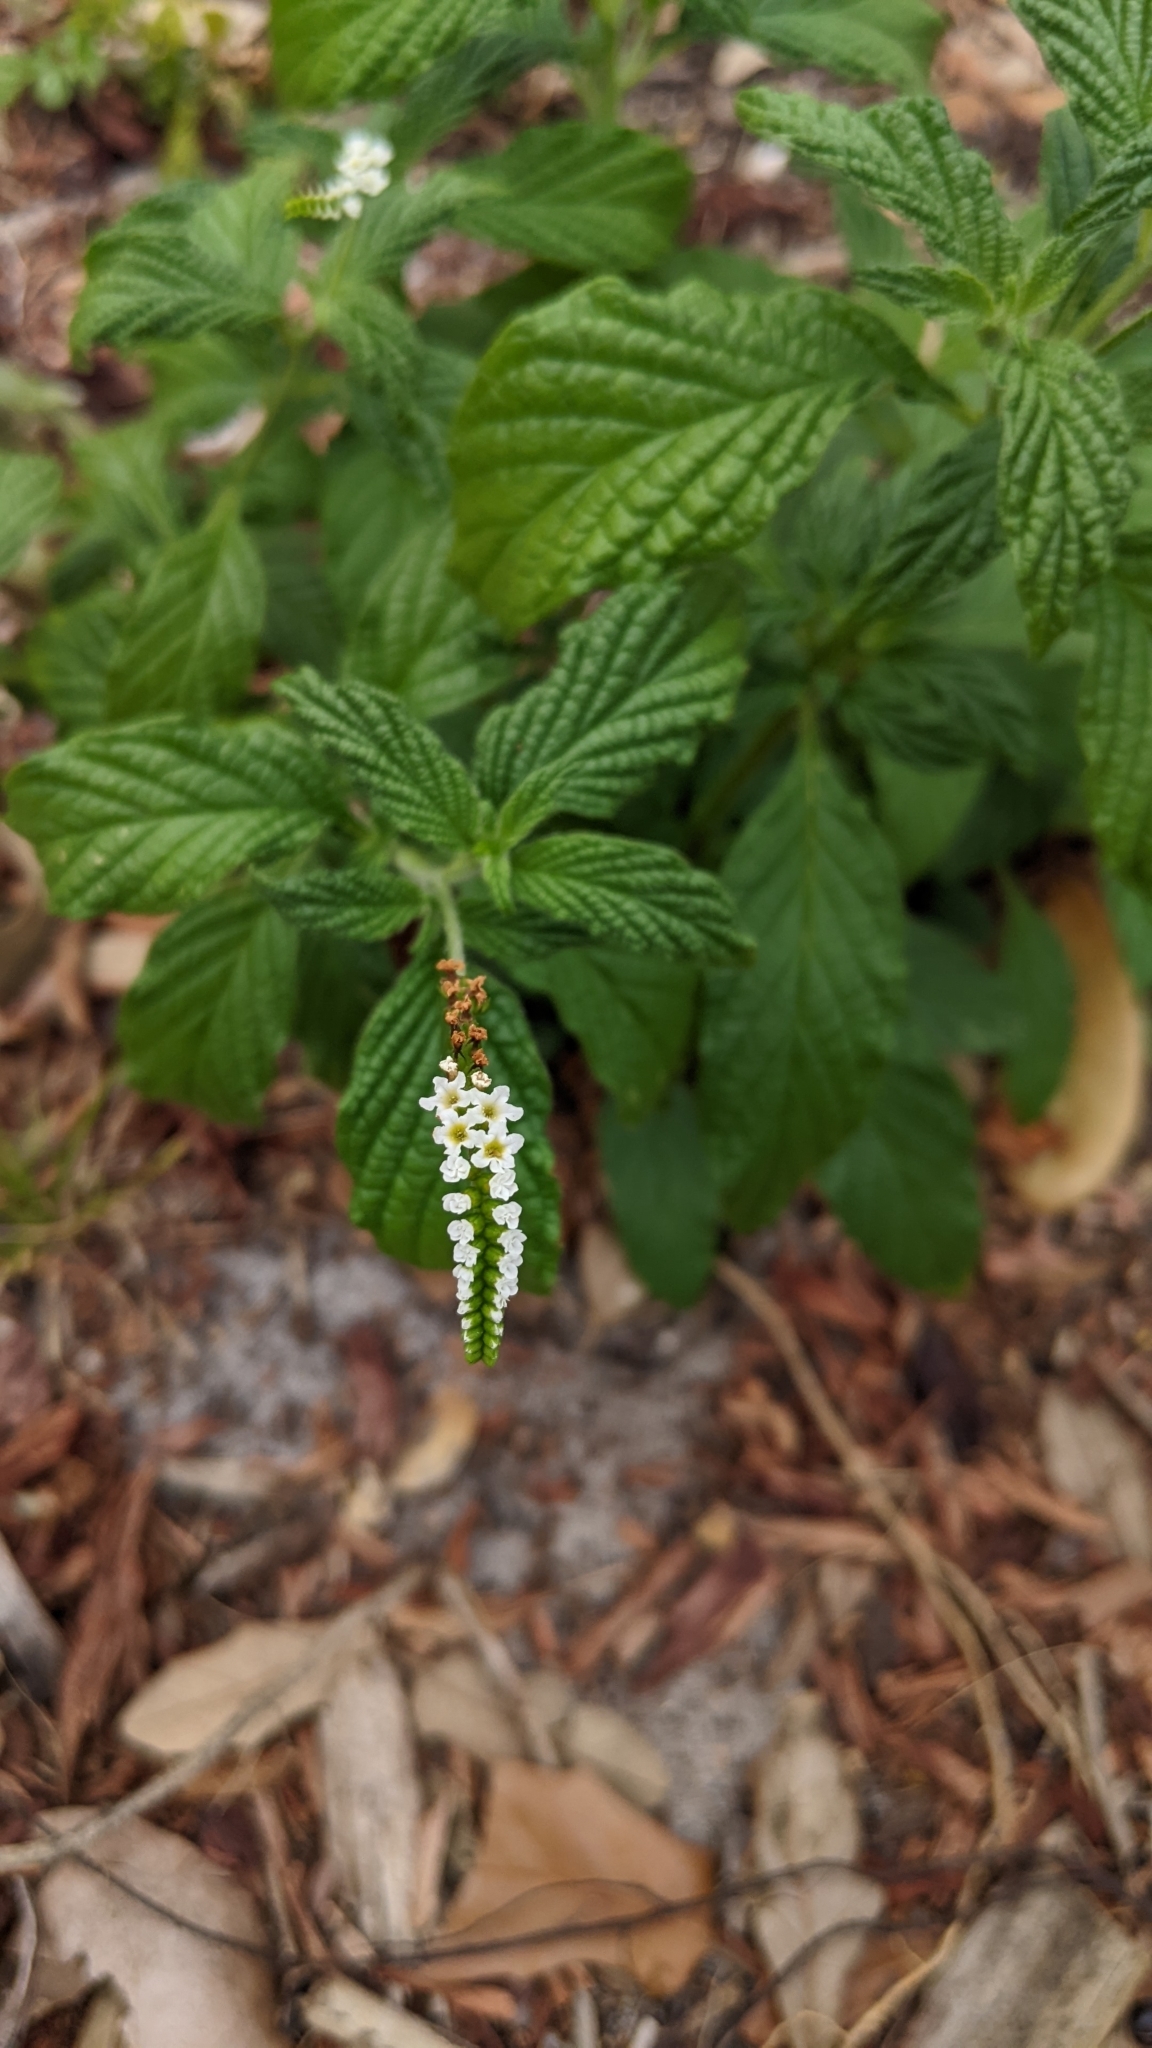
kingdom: Plantae
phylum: Tracheophyta
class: Magnoliopsida
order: Boraginales
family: Heliotropiaceae
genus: Heliotropium
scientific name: Heliotropium angiospermum
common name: Eye bright
